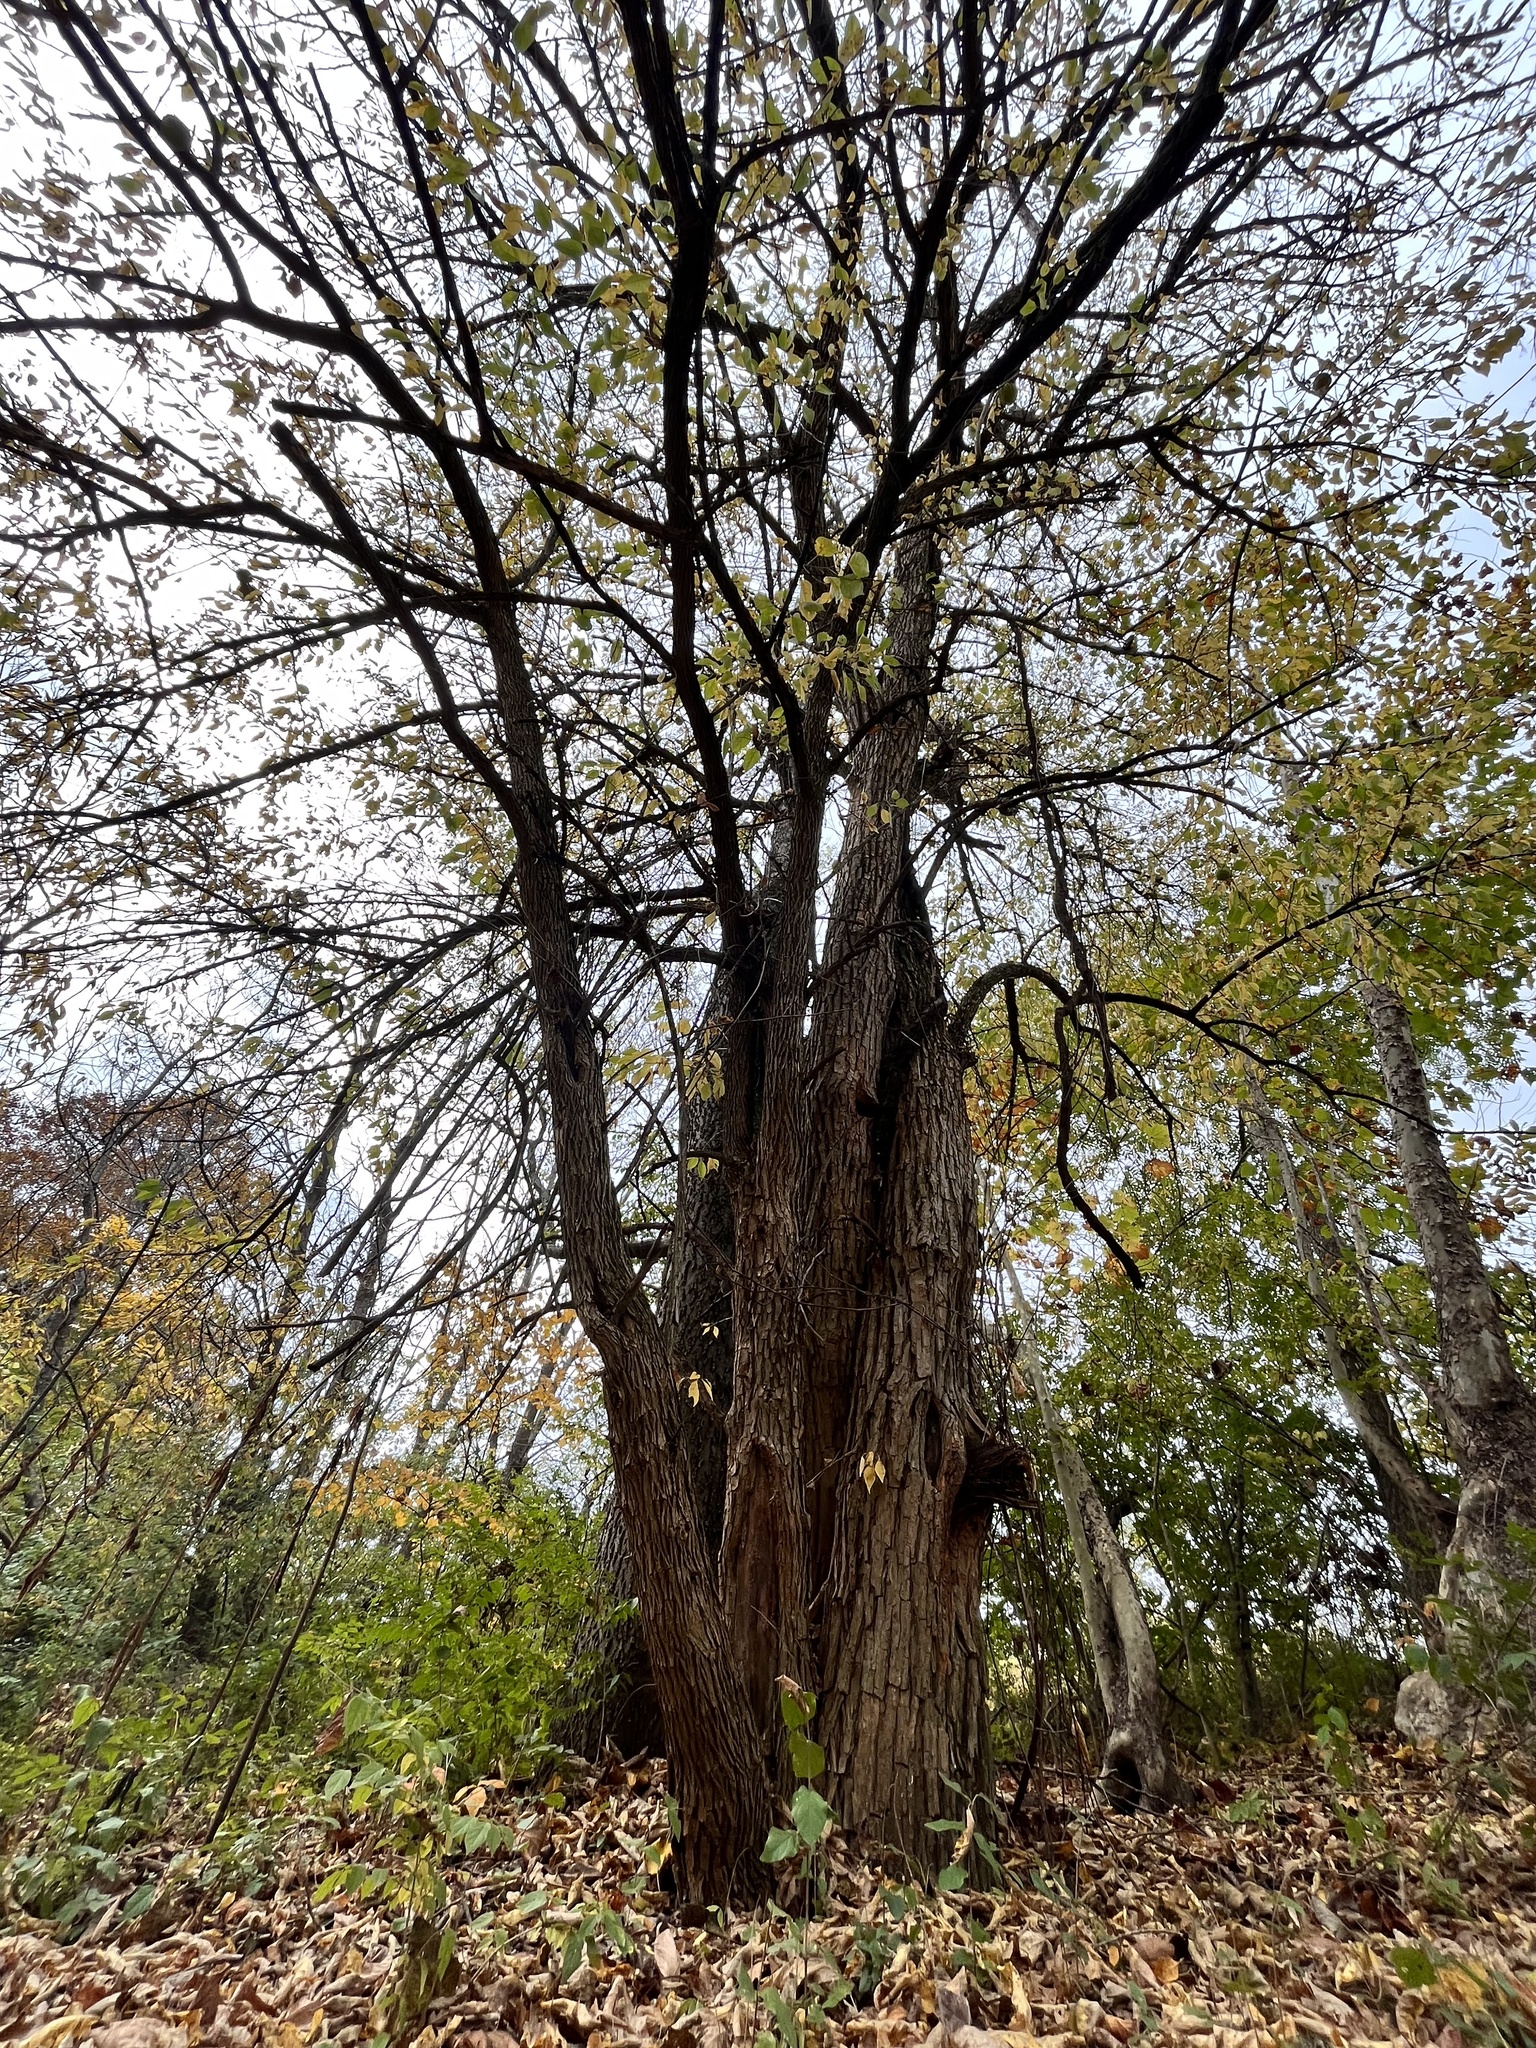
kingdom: Plantae
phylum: Tracheophyta
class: Magnoliopsida
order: Rosales
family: Moraceae
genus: Maclura
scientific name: Maclura pomifera
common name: Osage-orange
